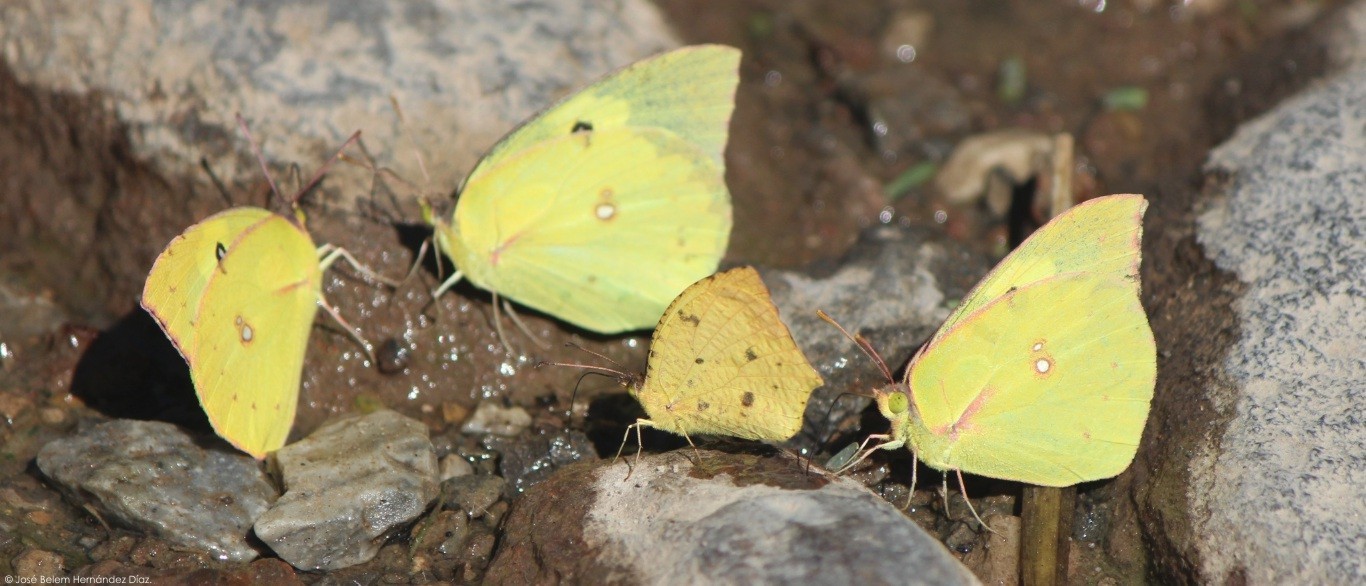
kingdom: Animalia
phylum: Arthropoda
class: Insecta
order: Lepidoptera
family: Pieridae
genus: Abaeis
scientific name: Abaeis salome
